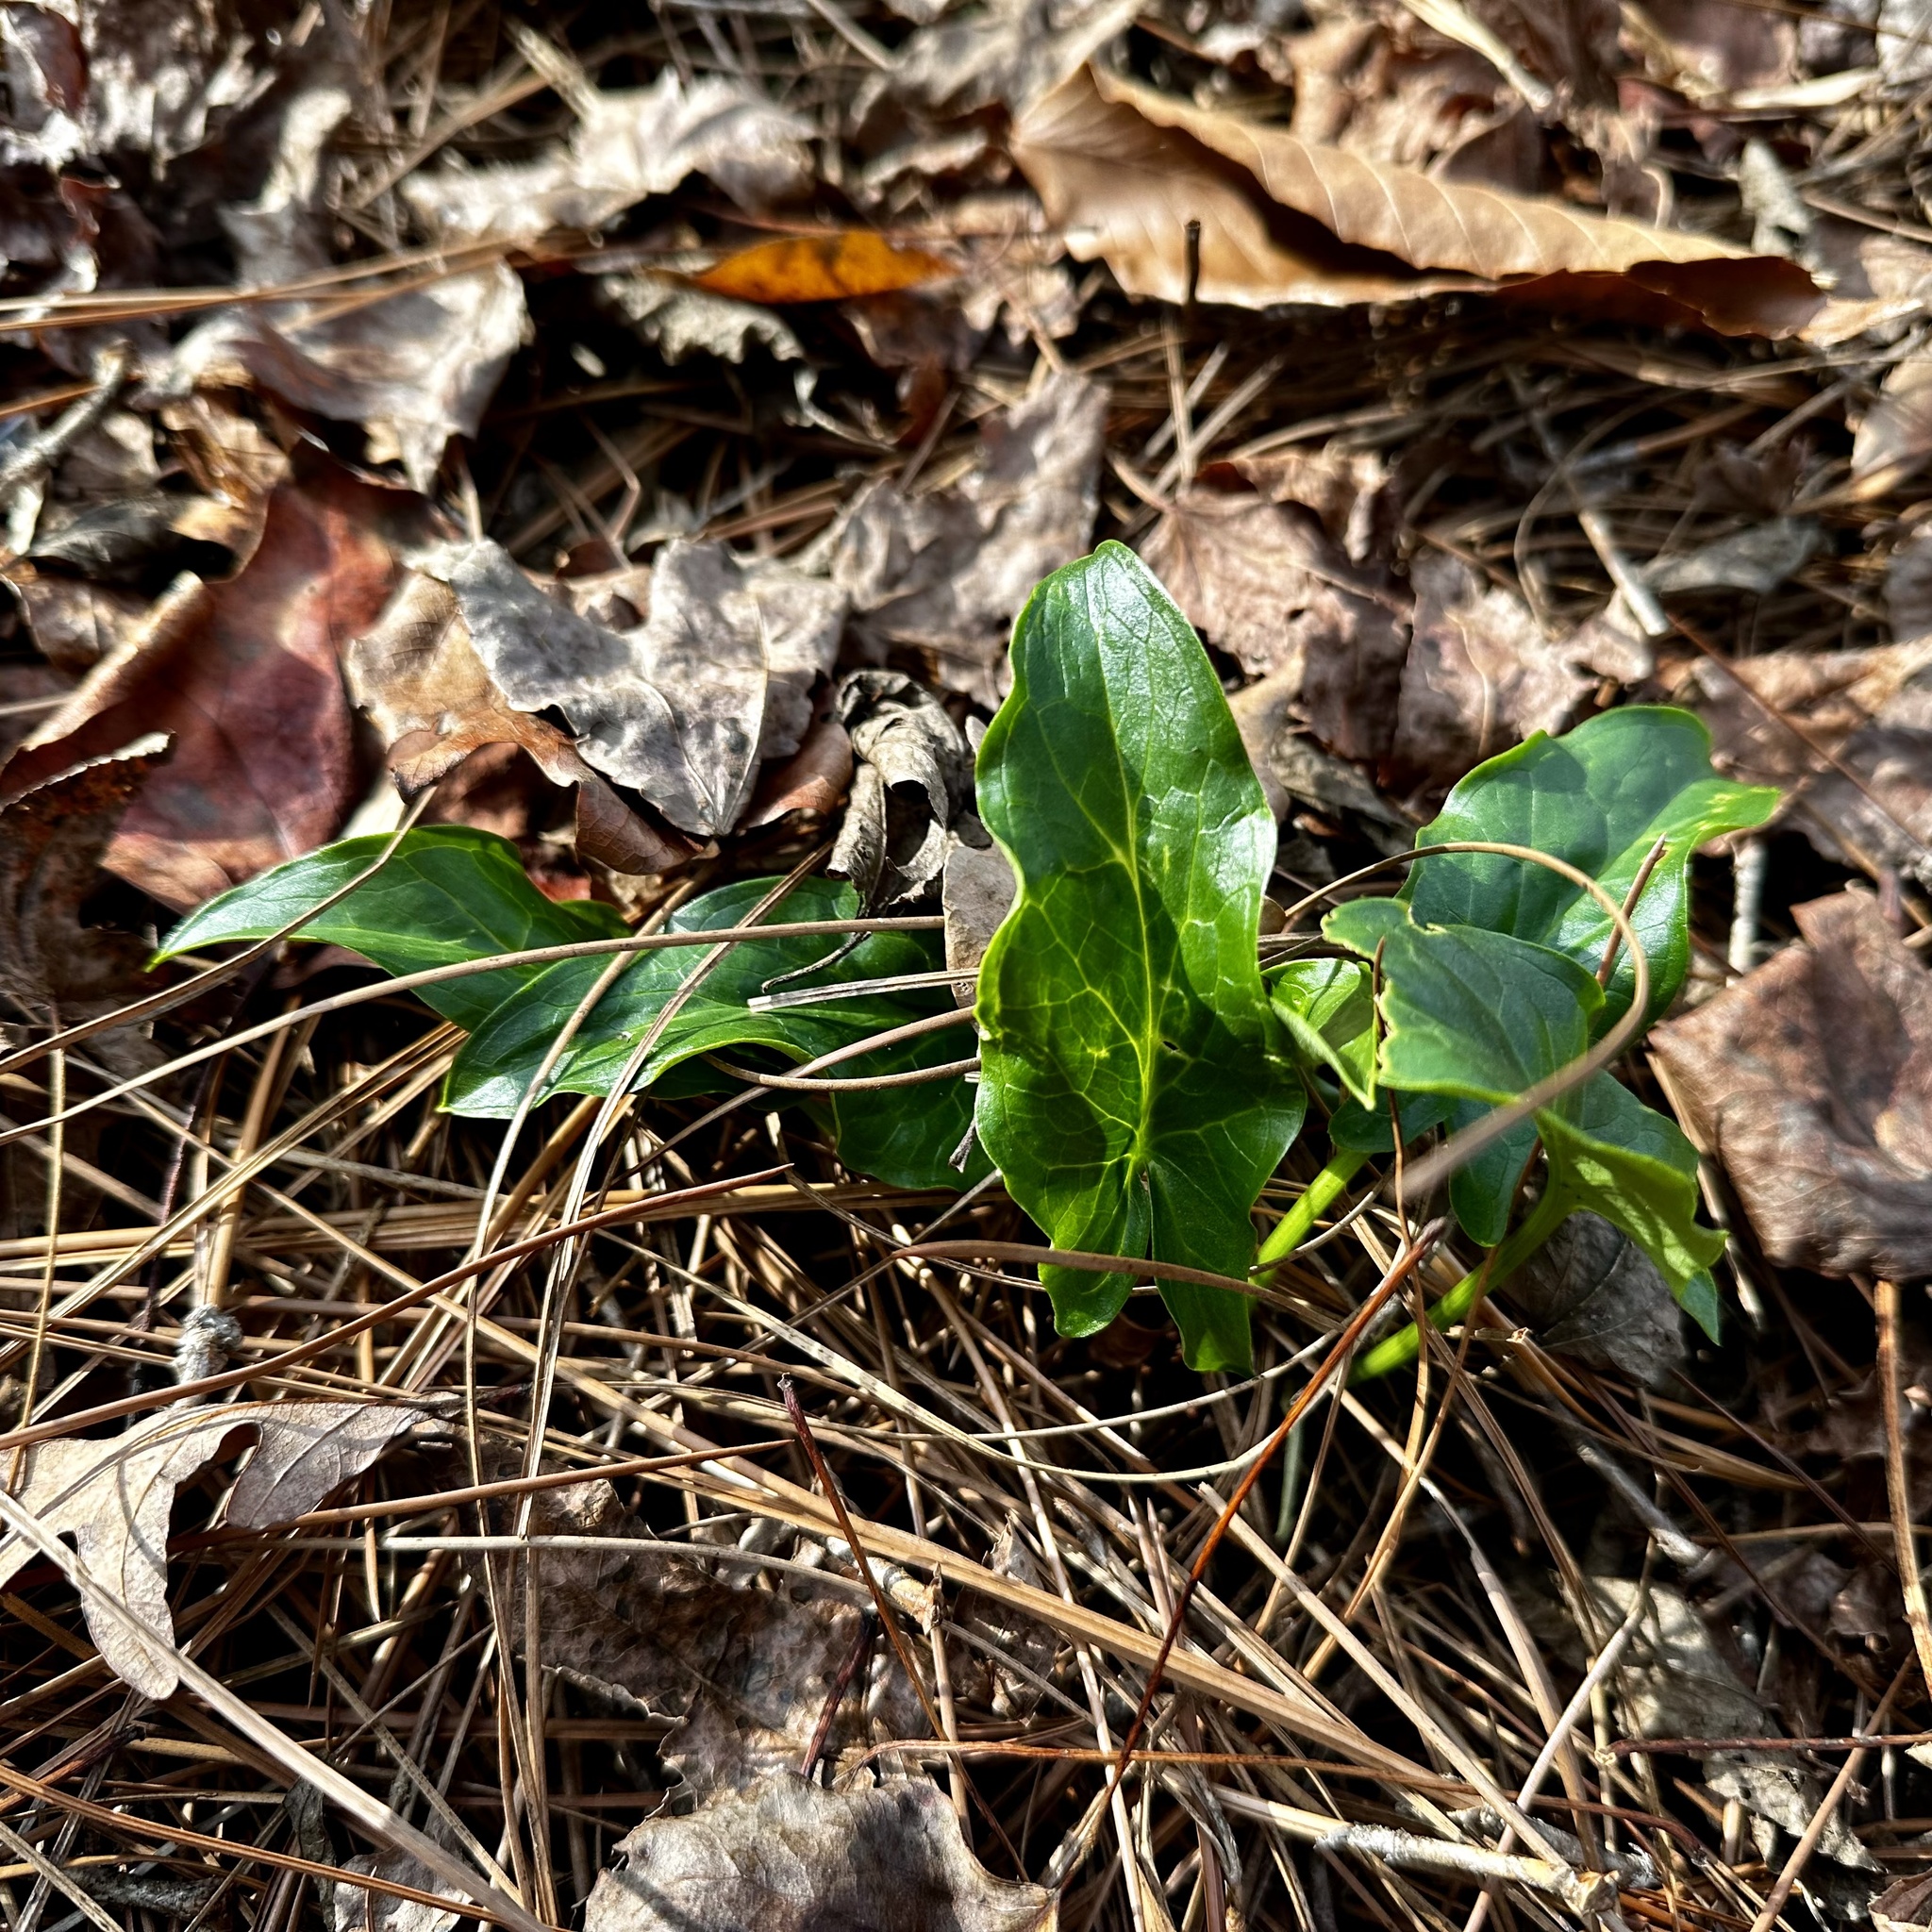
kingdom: Plantae
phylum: Tracheophyta
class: Liliopsida
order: Alismatales
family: Araceae
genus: Arum
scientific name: Arum italicum
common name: Italian lords-and-ladies
